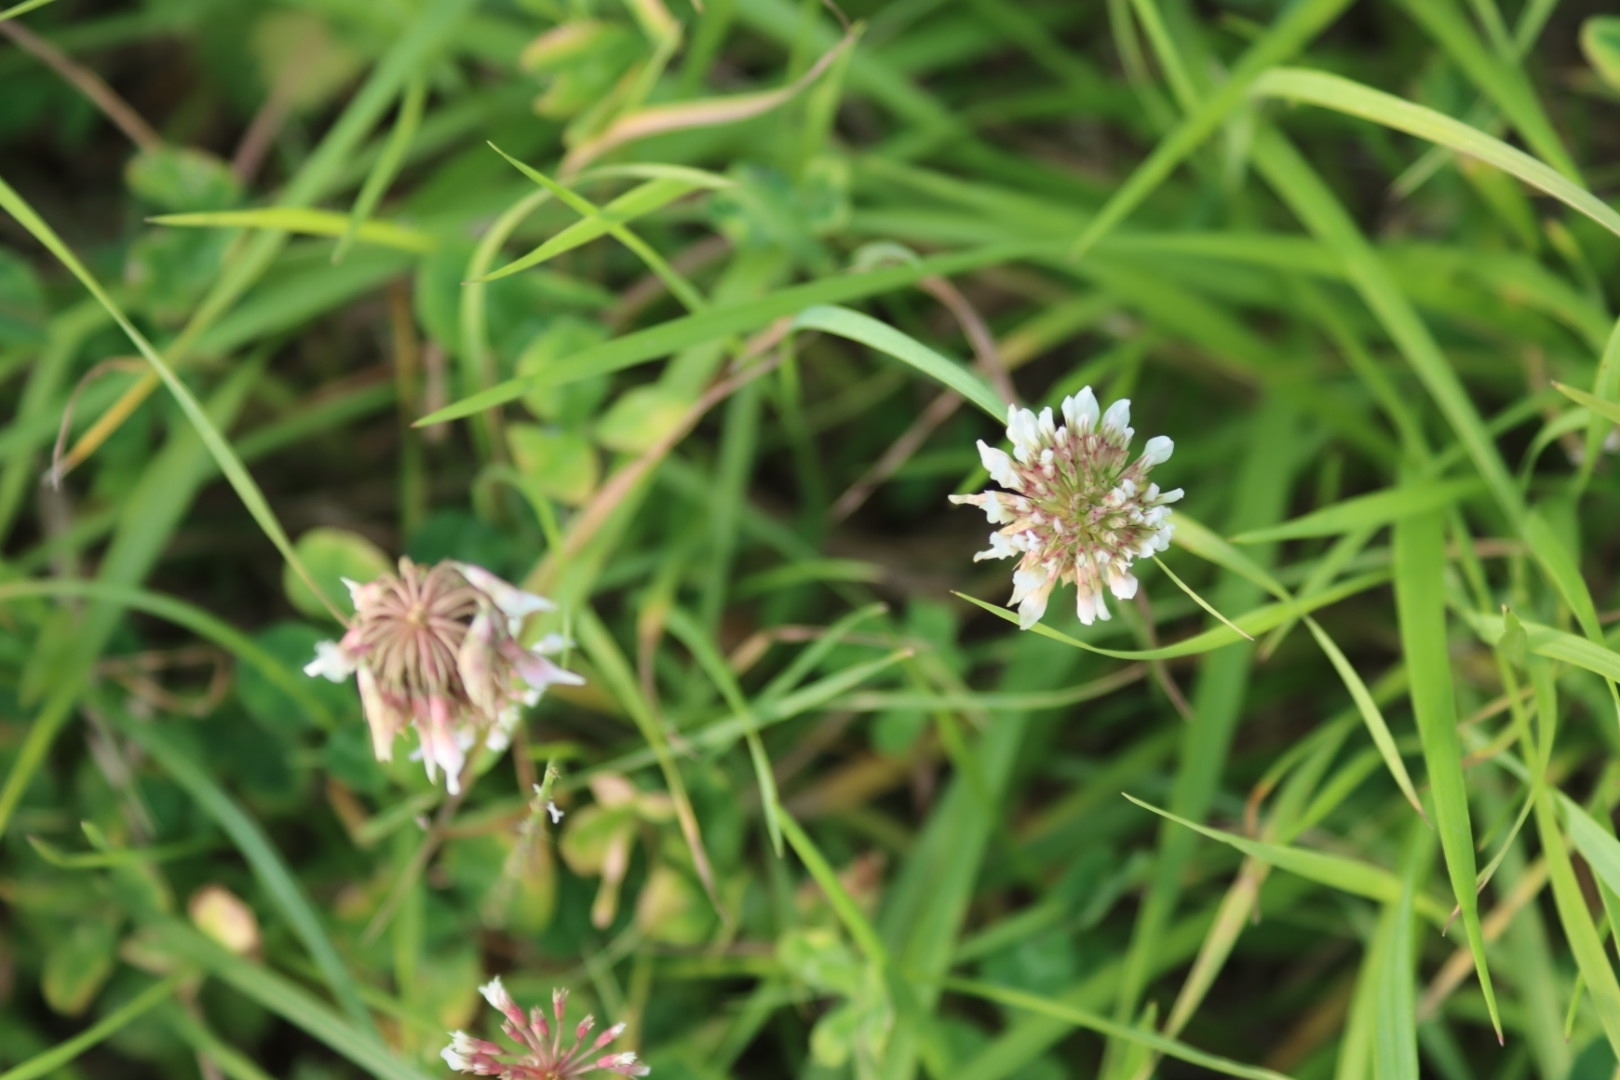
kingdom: Plantae
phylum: Tracheophyta
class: Magnoliopsida
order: Fabales
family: Fabaceae
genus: Trifolium
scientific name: Trifolium repens
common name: White clover
